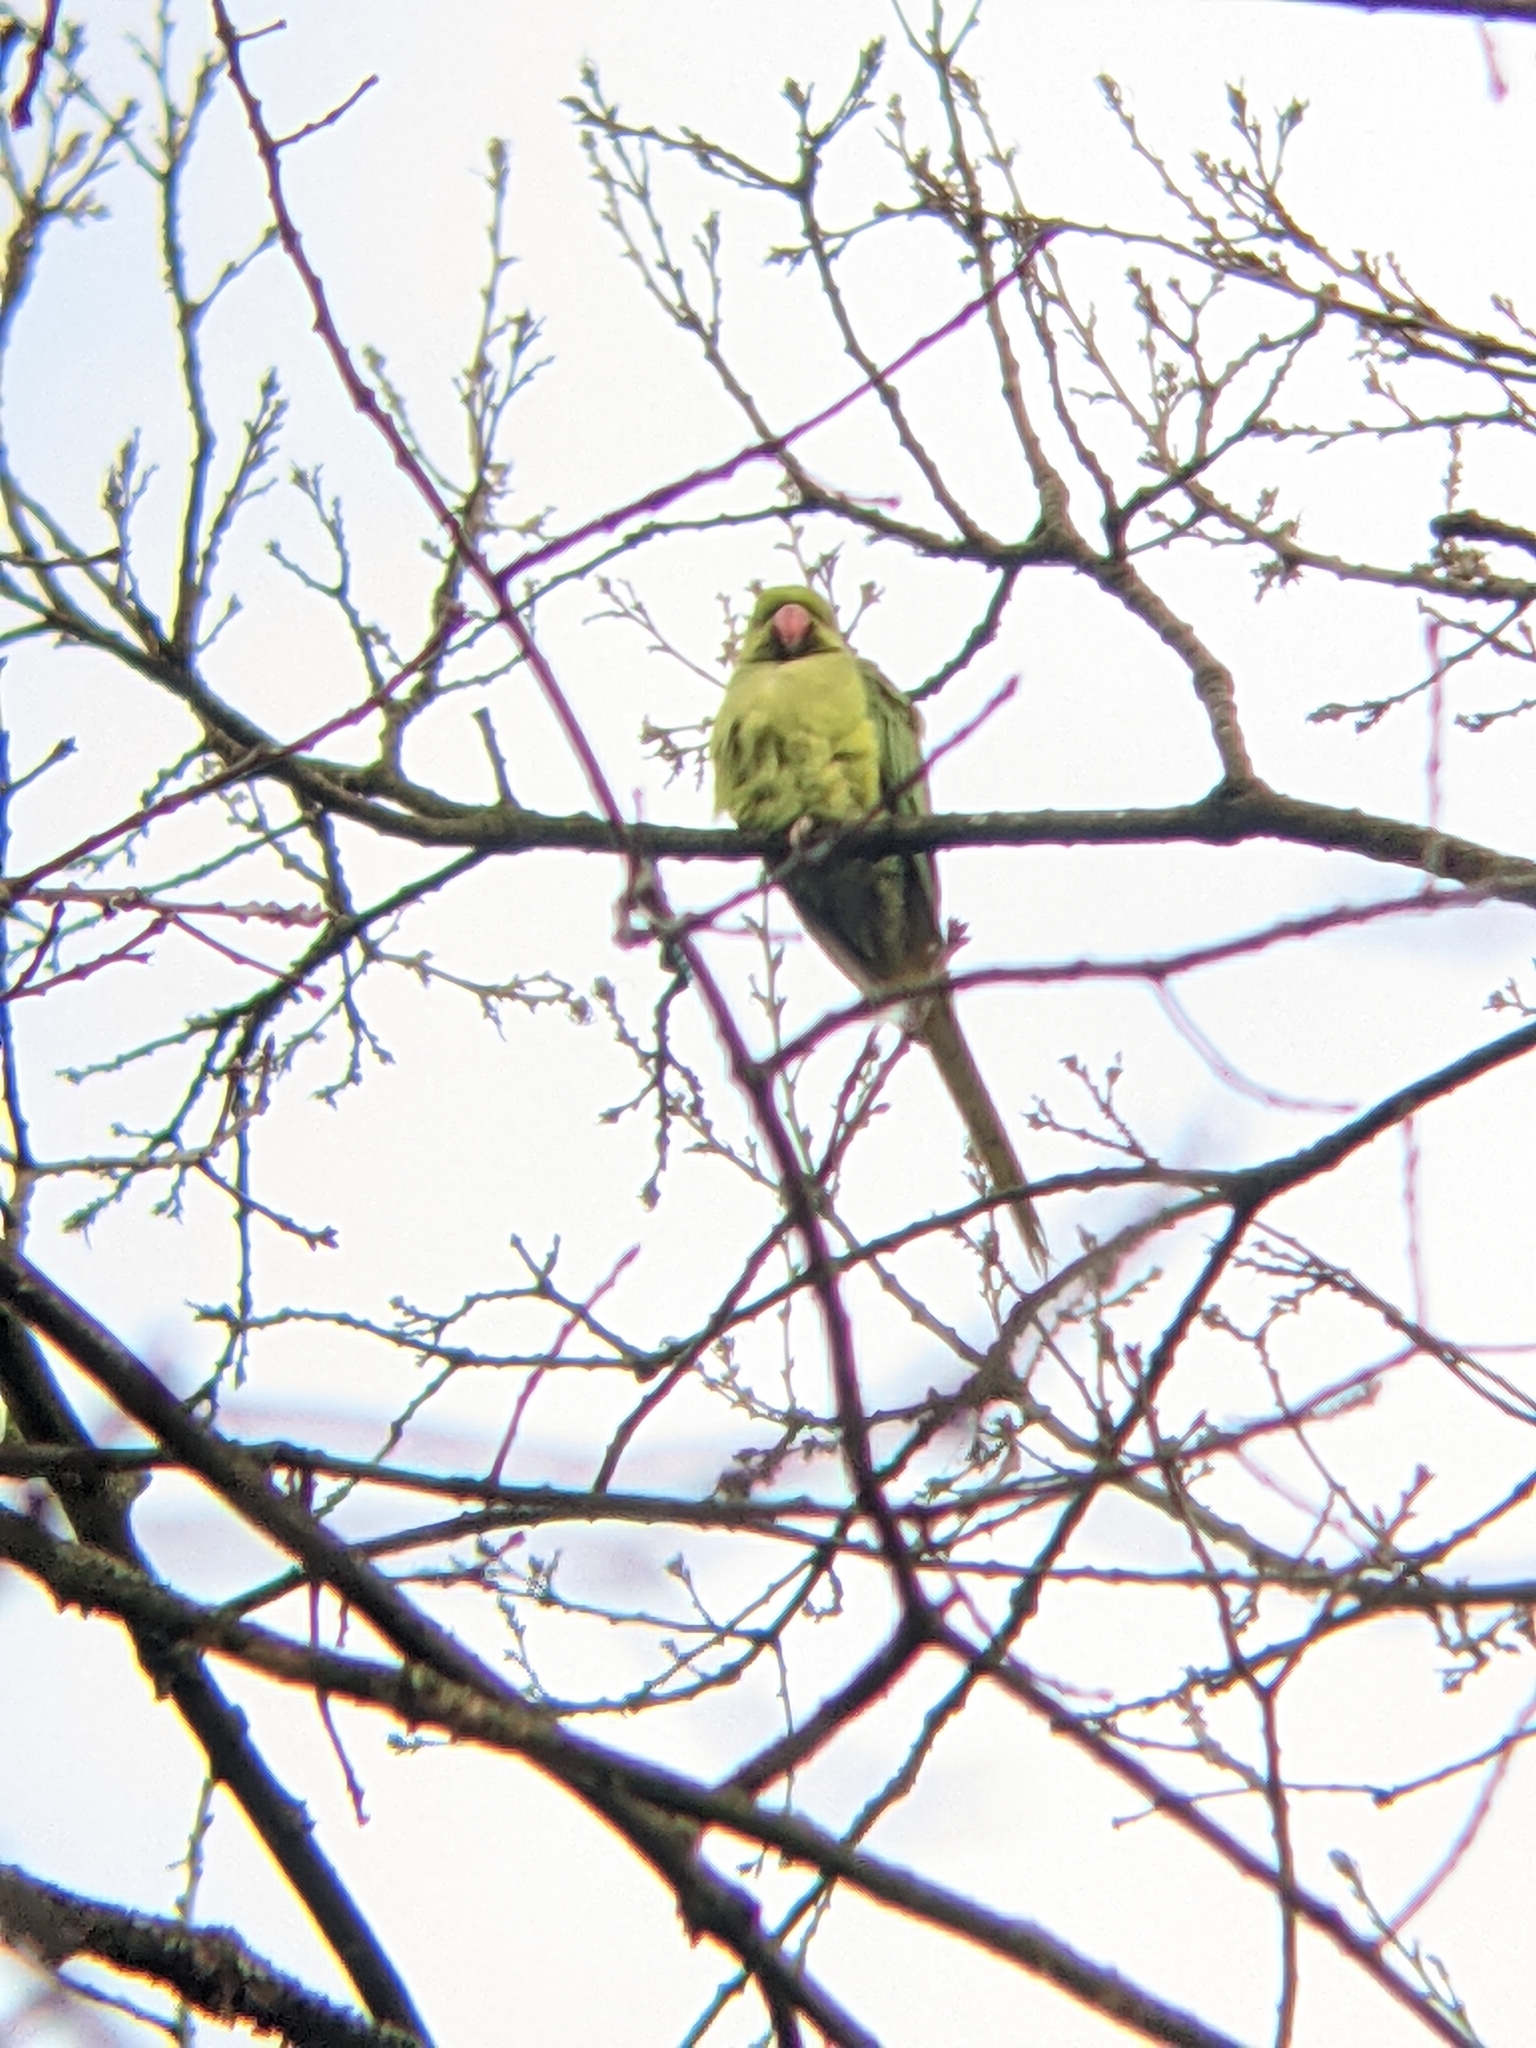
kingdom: Animalia
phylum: Chordata
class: Aves
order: Psittaciformes
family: Psittacidae
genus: Psittacula
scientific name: Psittacula krameri
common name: Rose-ringed parakeet
